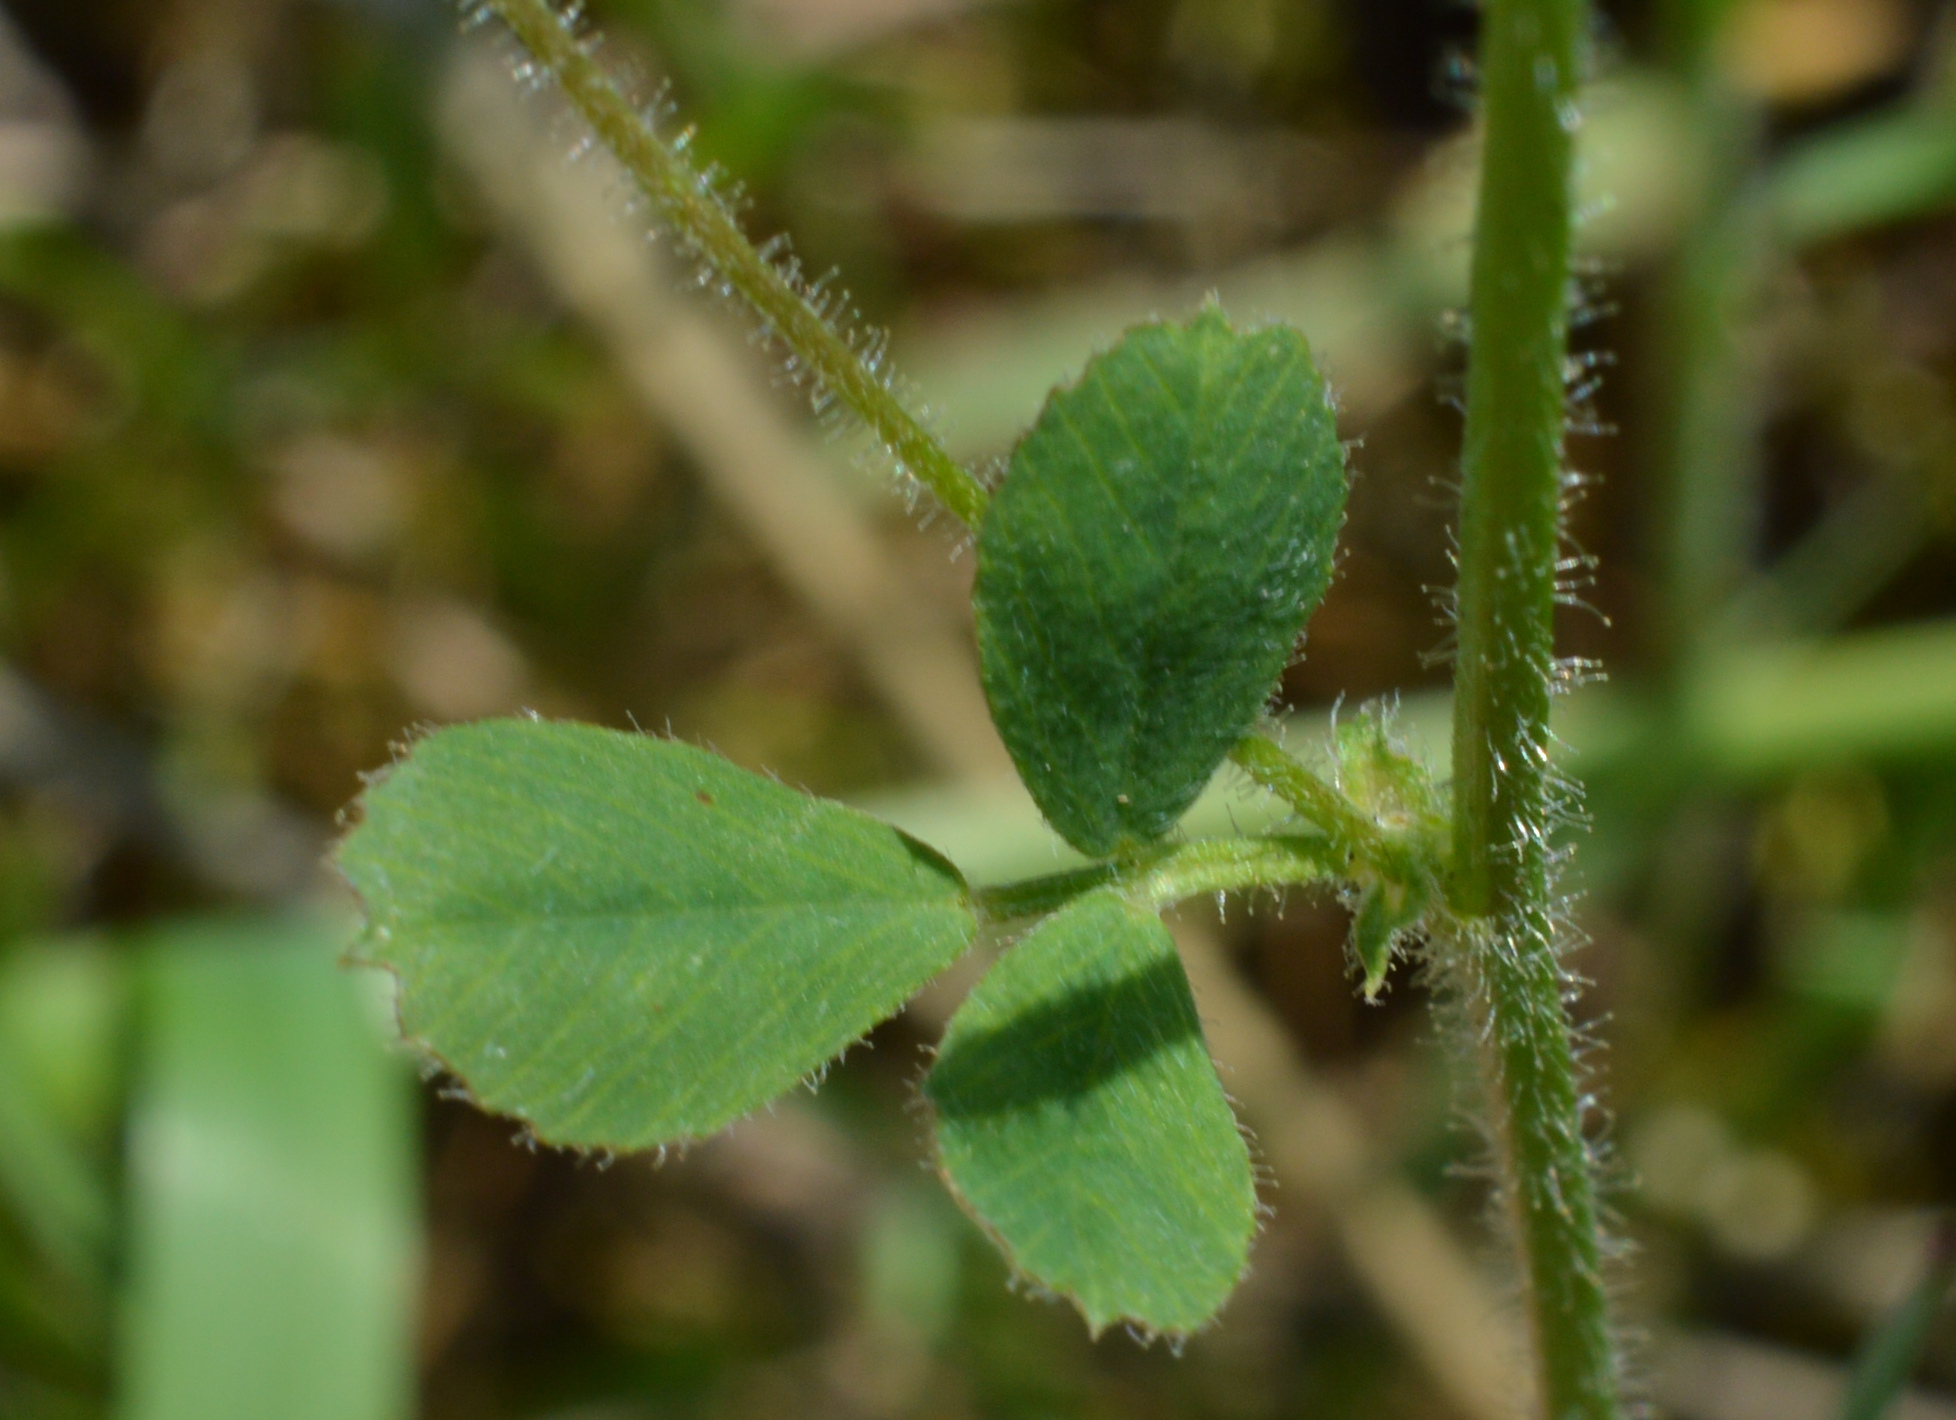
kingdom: Plantae
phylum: Tracheophyta
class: Magnoliopsida
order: Fabales
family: Fabaceae
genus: Medicago
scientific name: Medicago lupulina
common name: Black medick
